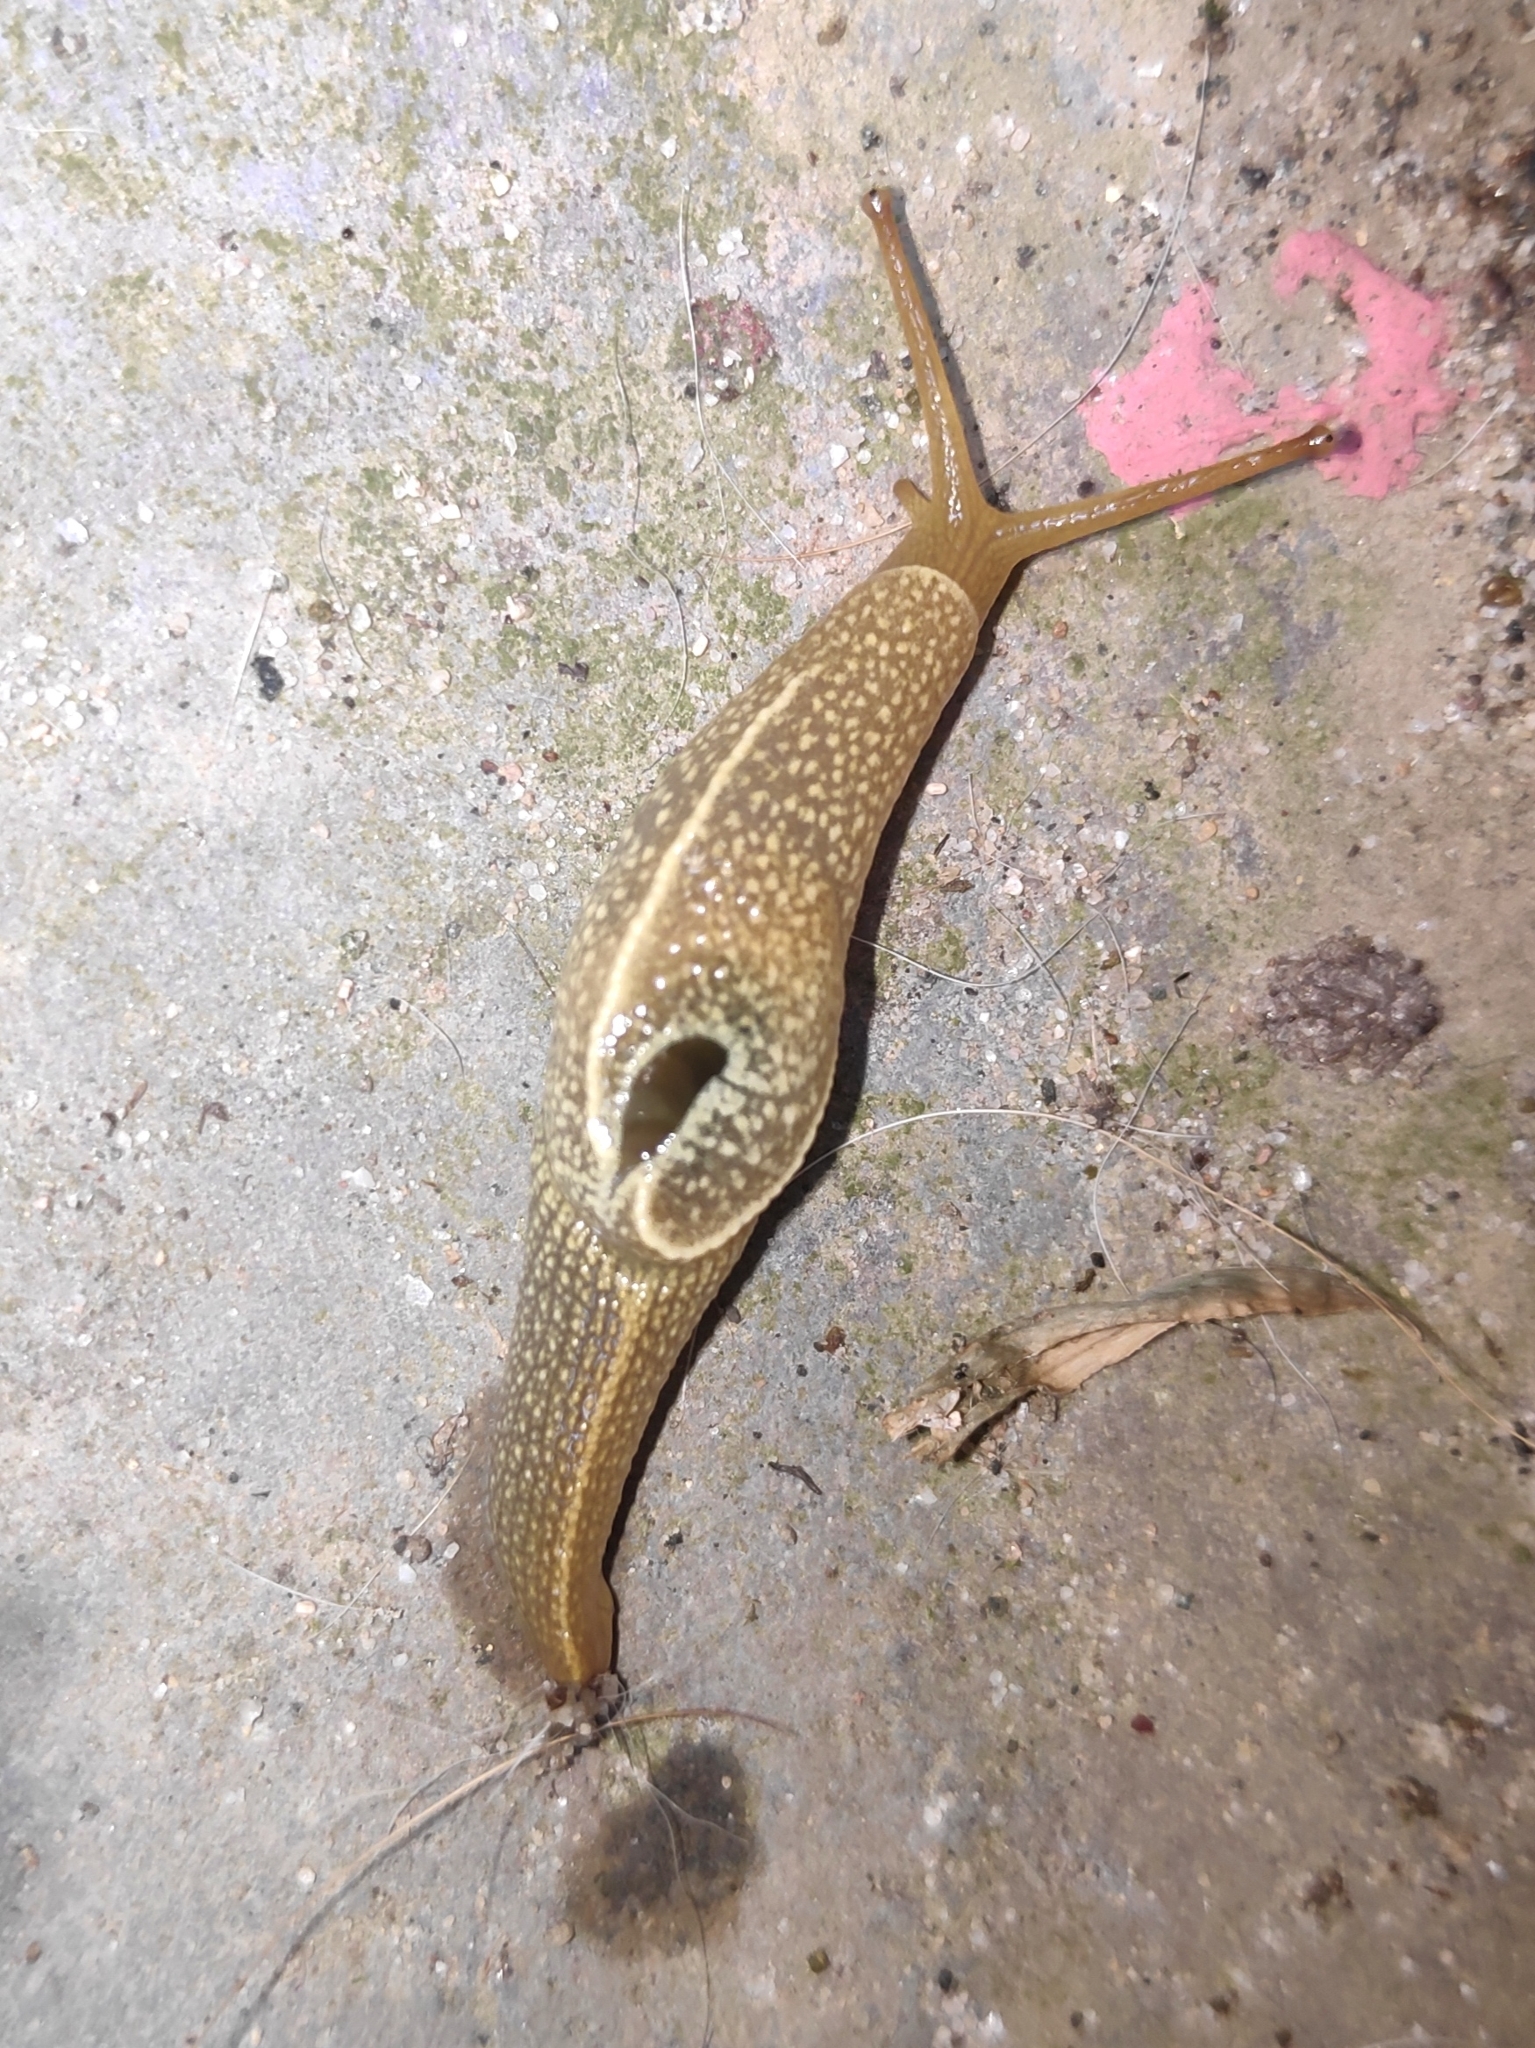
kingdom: Animalia
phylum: Mollusca
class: Gastropoda
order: Stylommatophora
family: Helicarionidae
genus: Girasia
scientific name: Girasia crocea
